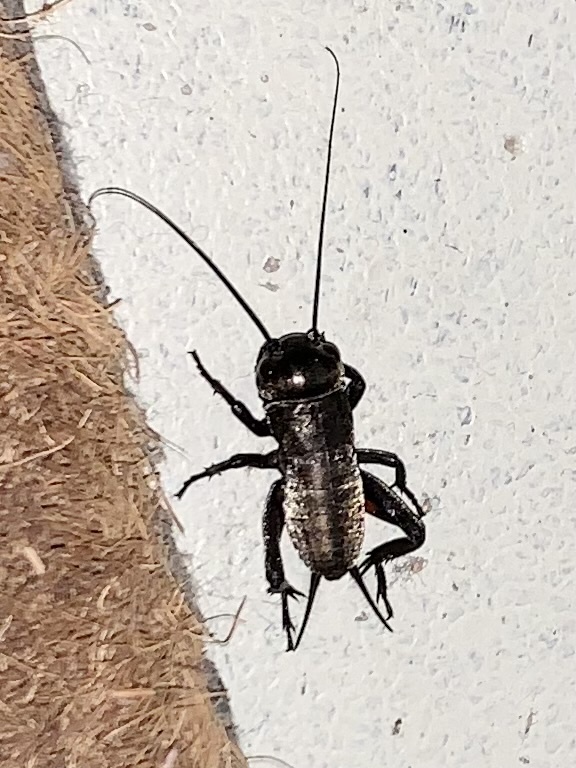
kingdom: Animalia
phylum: Arthropoda
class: Insecta
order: Orthoptera
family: Gryllidae
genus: Gryllus
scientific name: Gryllus campestris
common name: Field cricket
